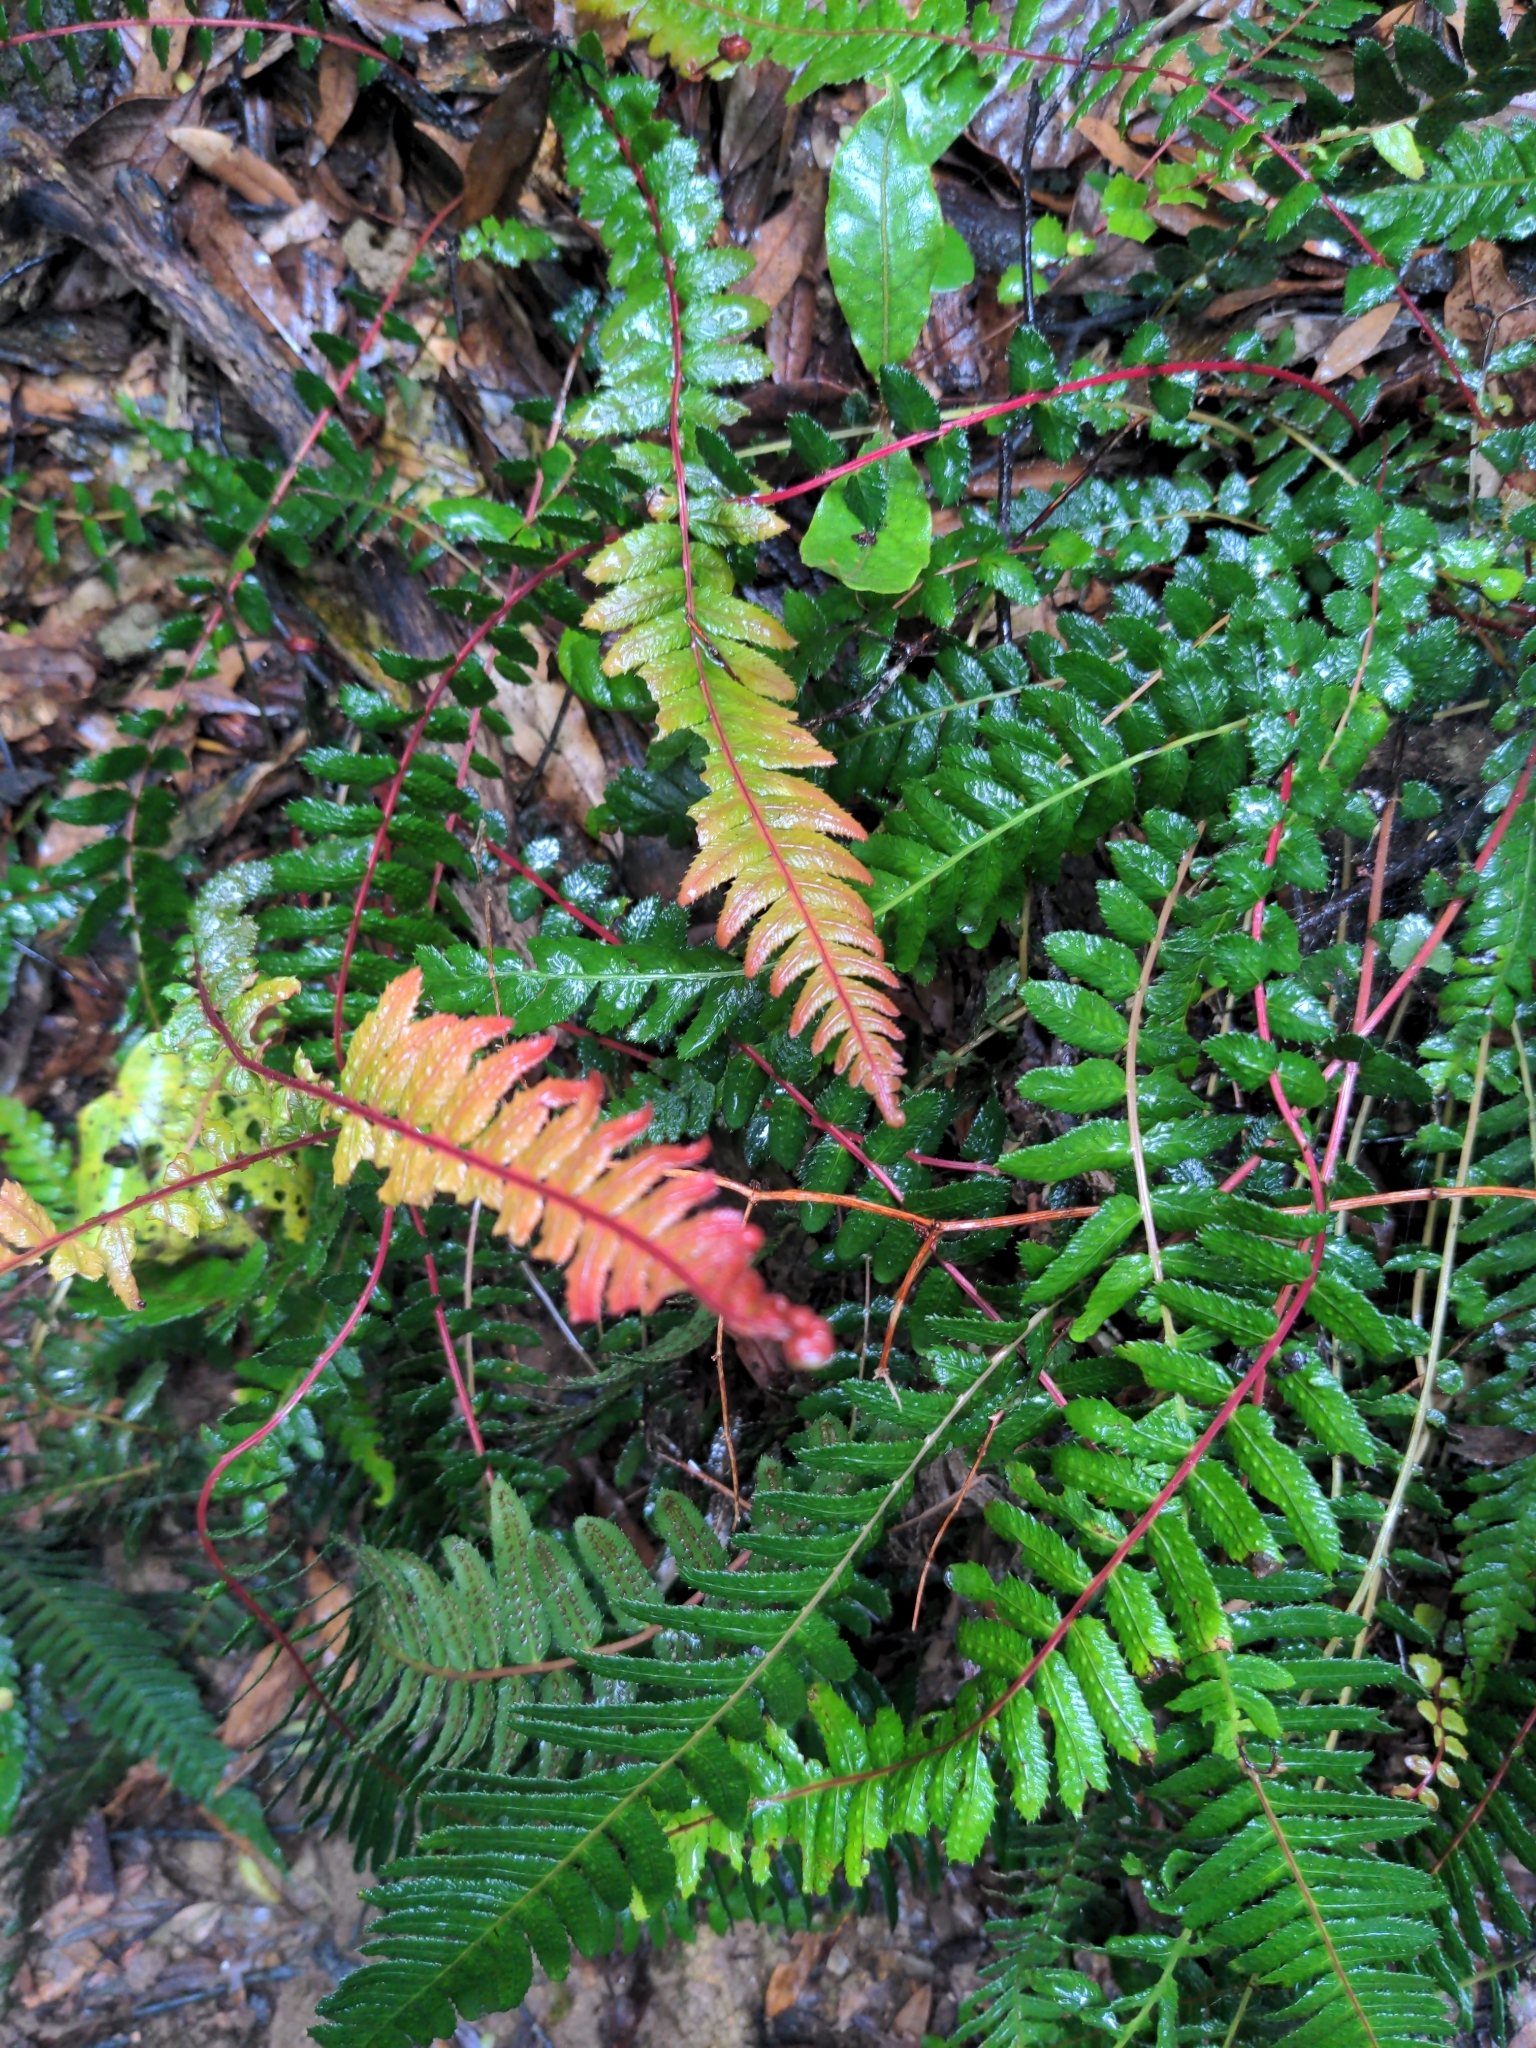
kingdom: Plantae
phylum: Tracheophyta
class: Polypodiopsida
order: Polypodiales
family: Blechnaceae
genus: Doodia
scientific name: Doodia australis
